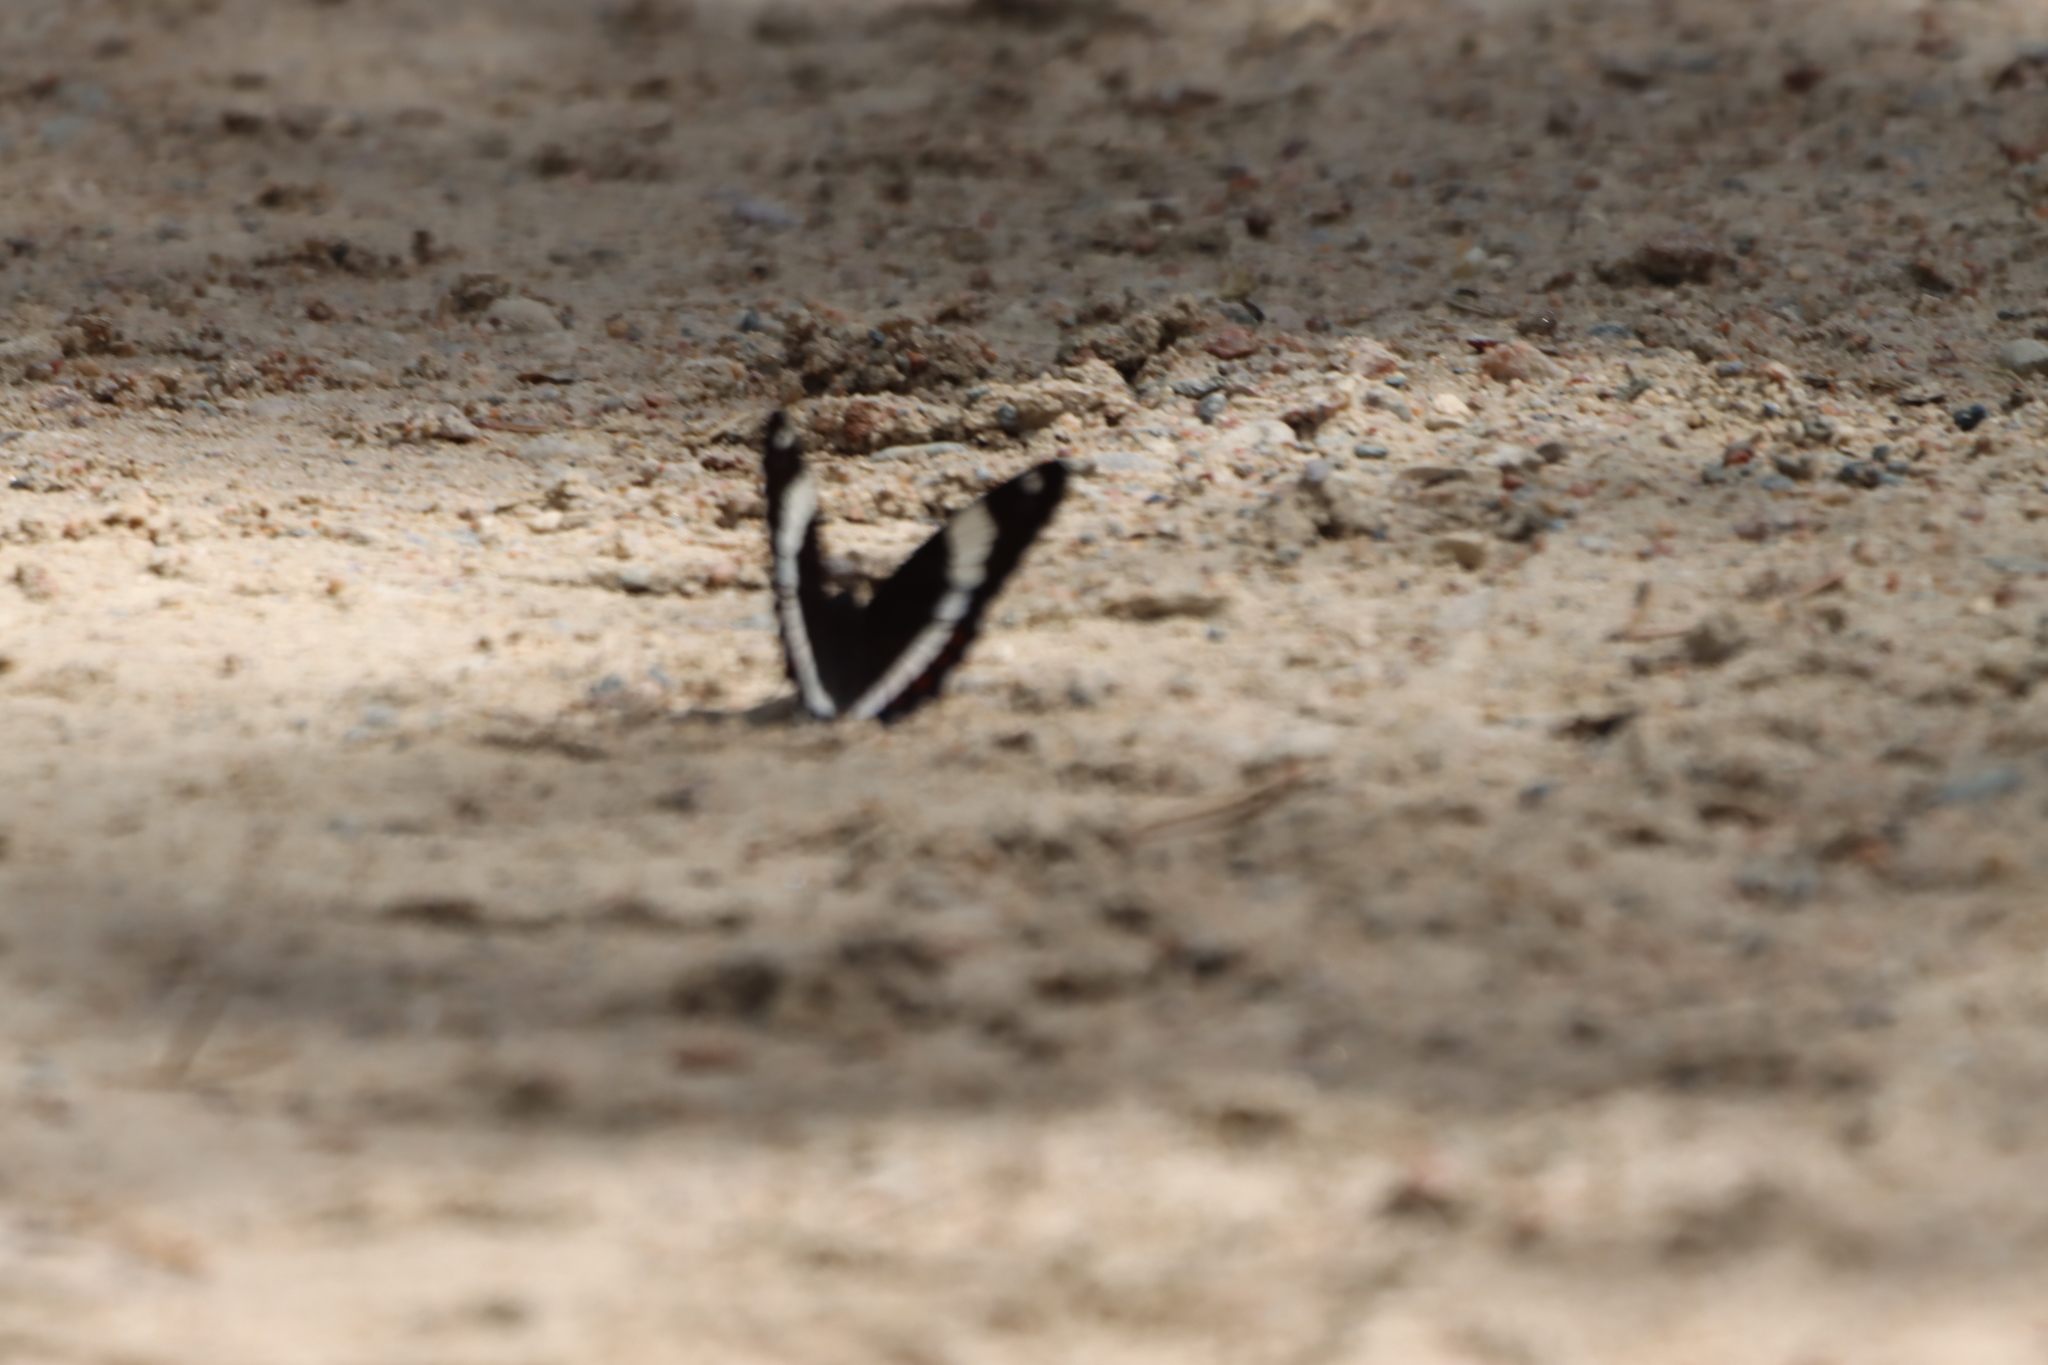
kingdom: Animalia
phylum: Arthropoda
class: Insecta
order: Lepidoptera
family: Nymphalidae
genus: Limenitis
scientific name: Limenitis arthemis
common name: Red-spotted admiral
